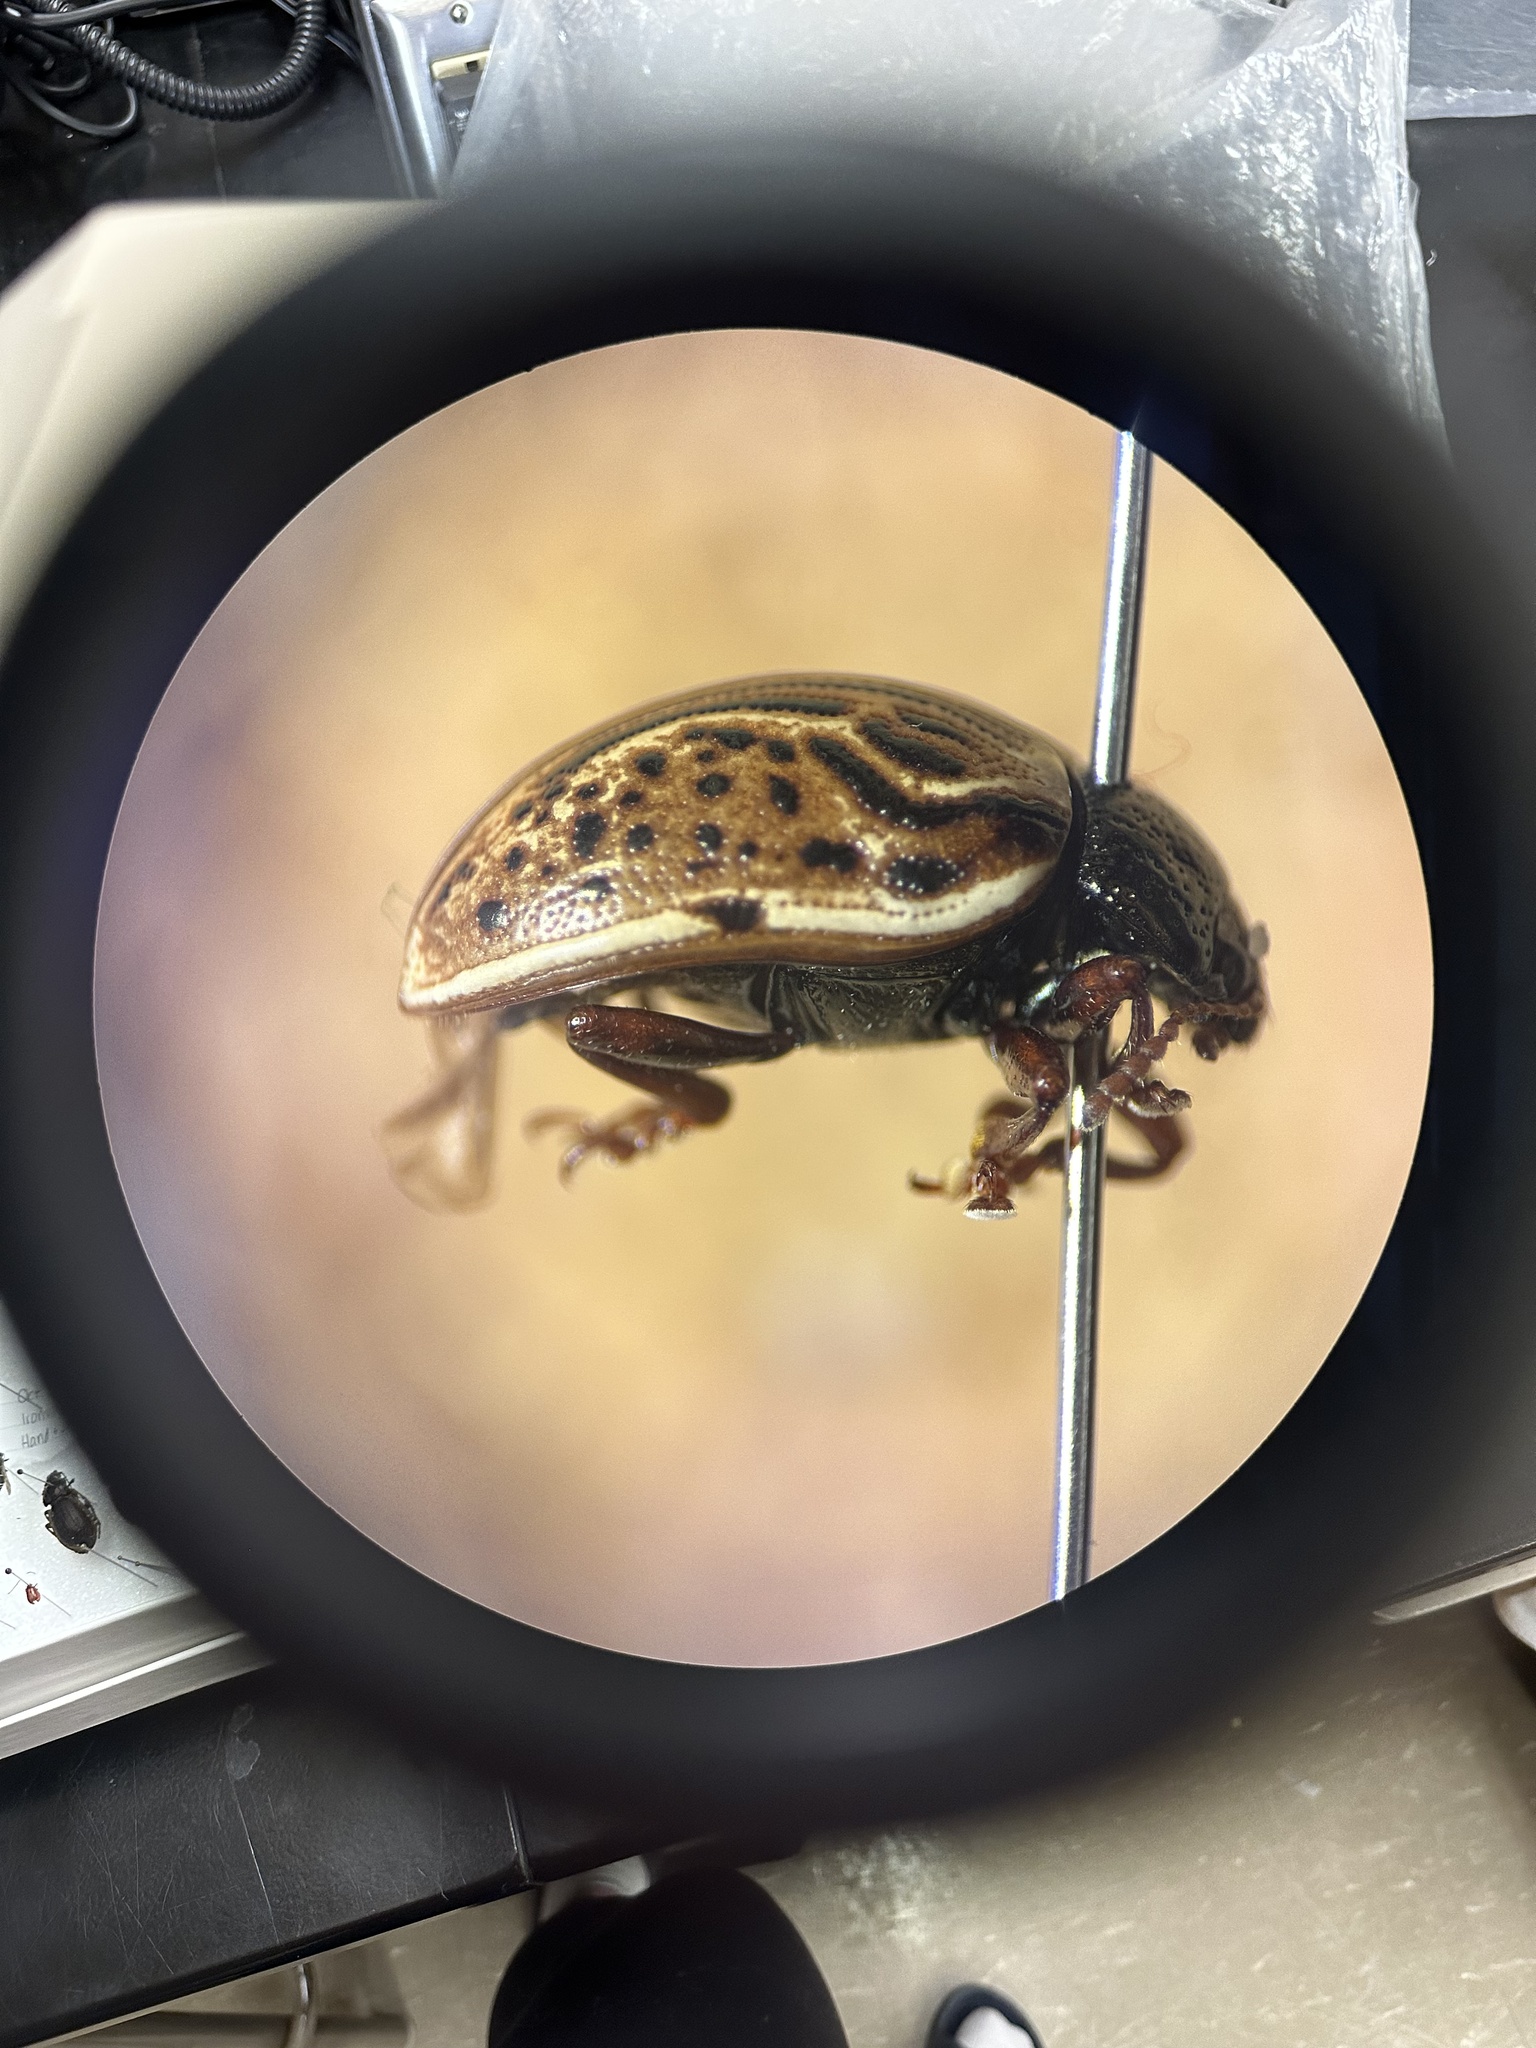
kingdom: Animalia
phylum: Arthropoda
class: Insecta
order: Coleoptera
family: Chrysomelidae
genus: Calligrapha
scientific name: Calligrapha alni
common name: Russet alder leaf beetle
